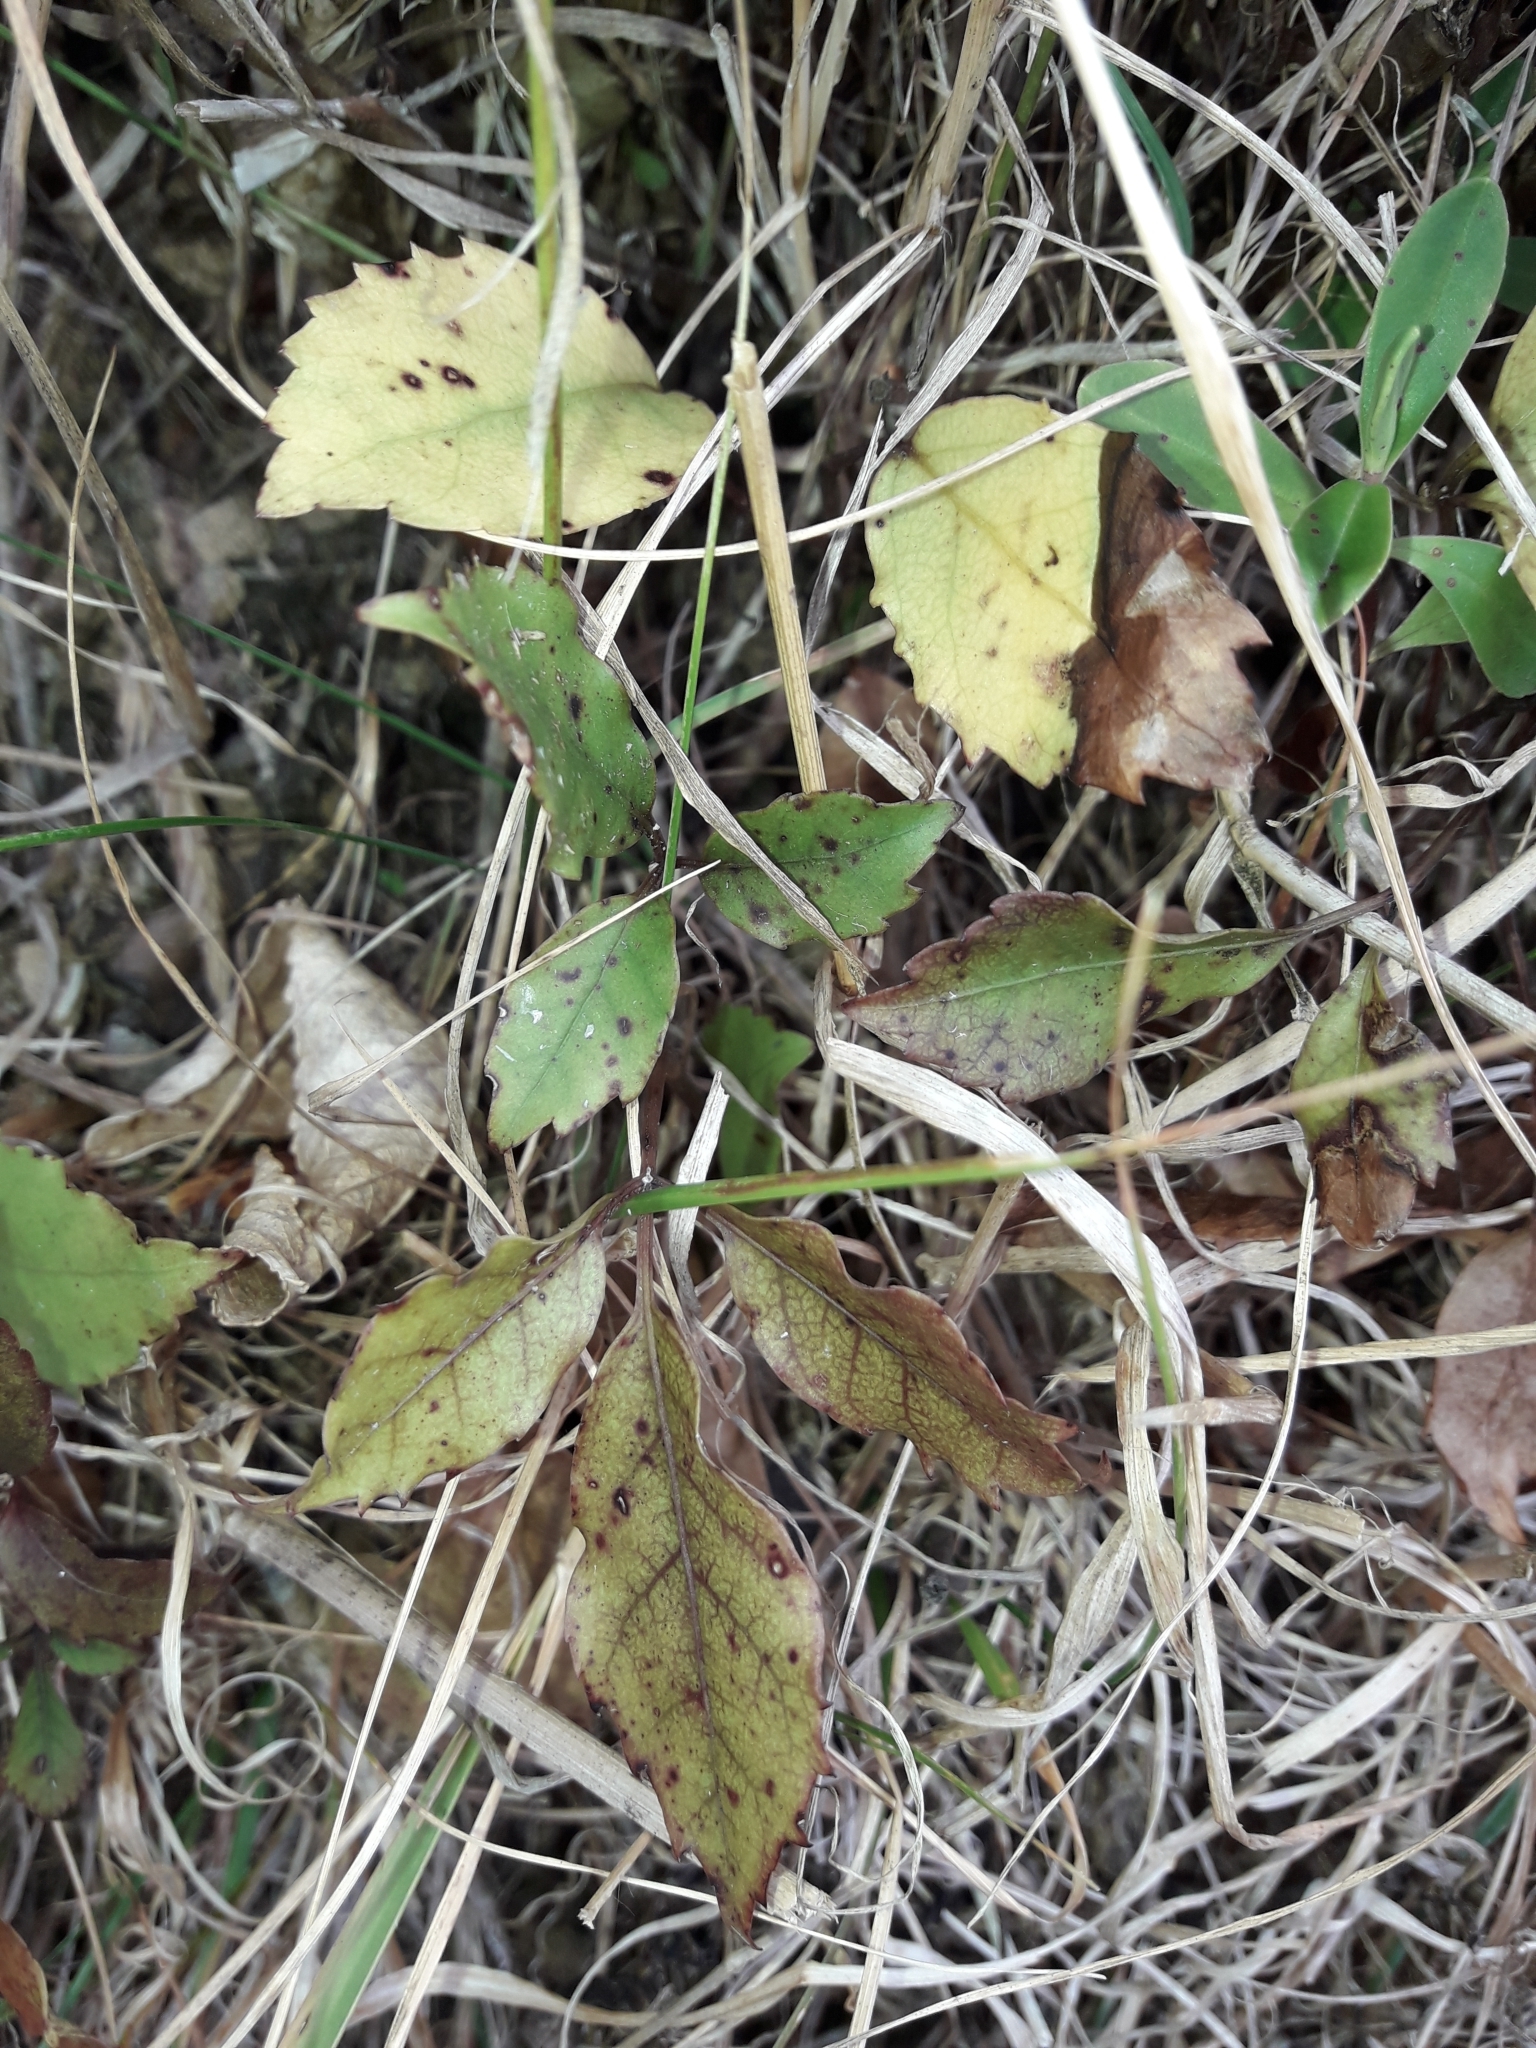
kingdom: Plantae
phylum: Tracheophyta
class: Magnoliopsida
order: Oxalidales
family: Cunoniaceae
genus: Pterophylla
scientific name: Pterophylla racemosa
